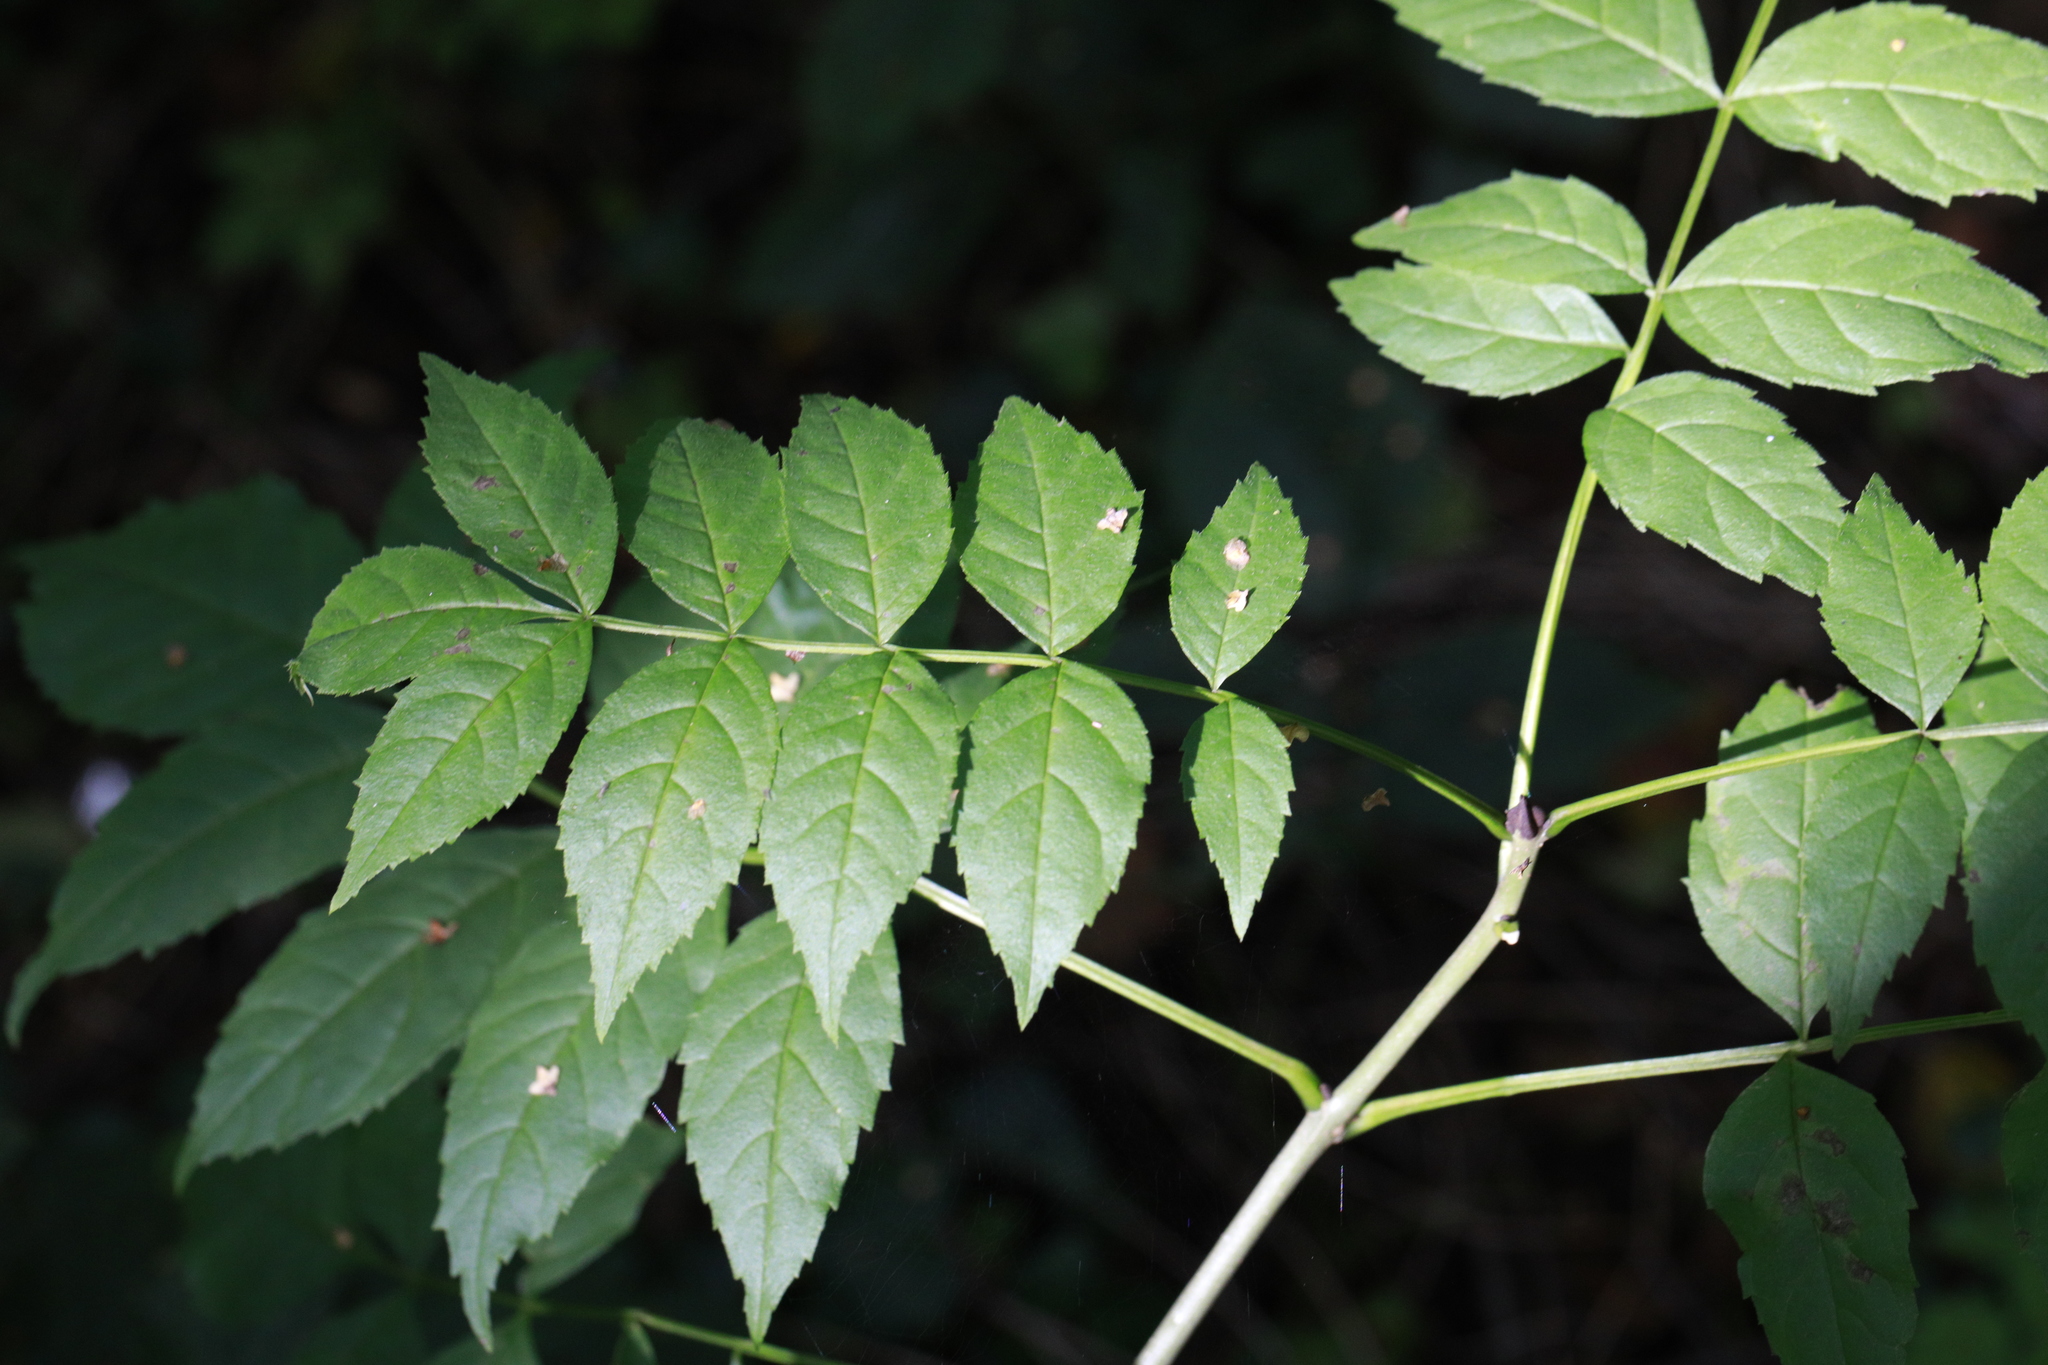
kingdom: Plantae
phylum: Tracheophyta
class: Magnoliopsida
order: Lamiales
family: Oleaceae
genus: Fraxinus
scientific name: Fraxinus excelsior
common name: European ash
